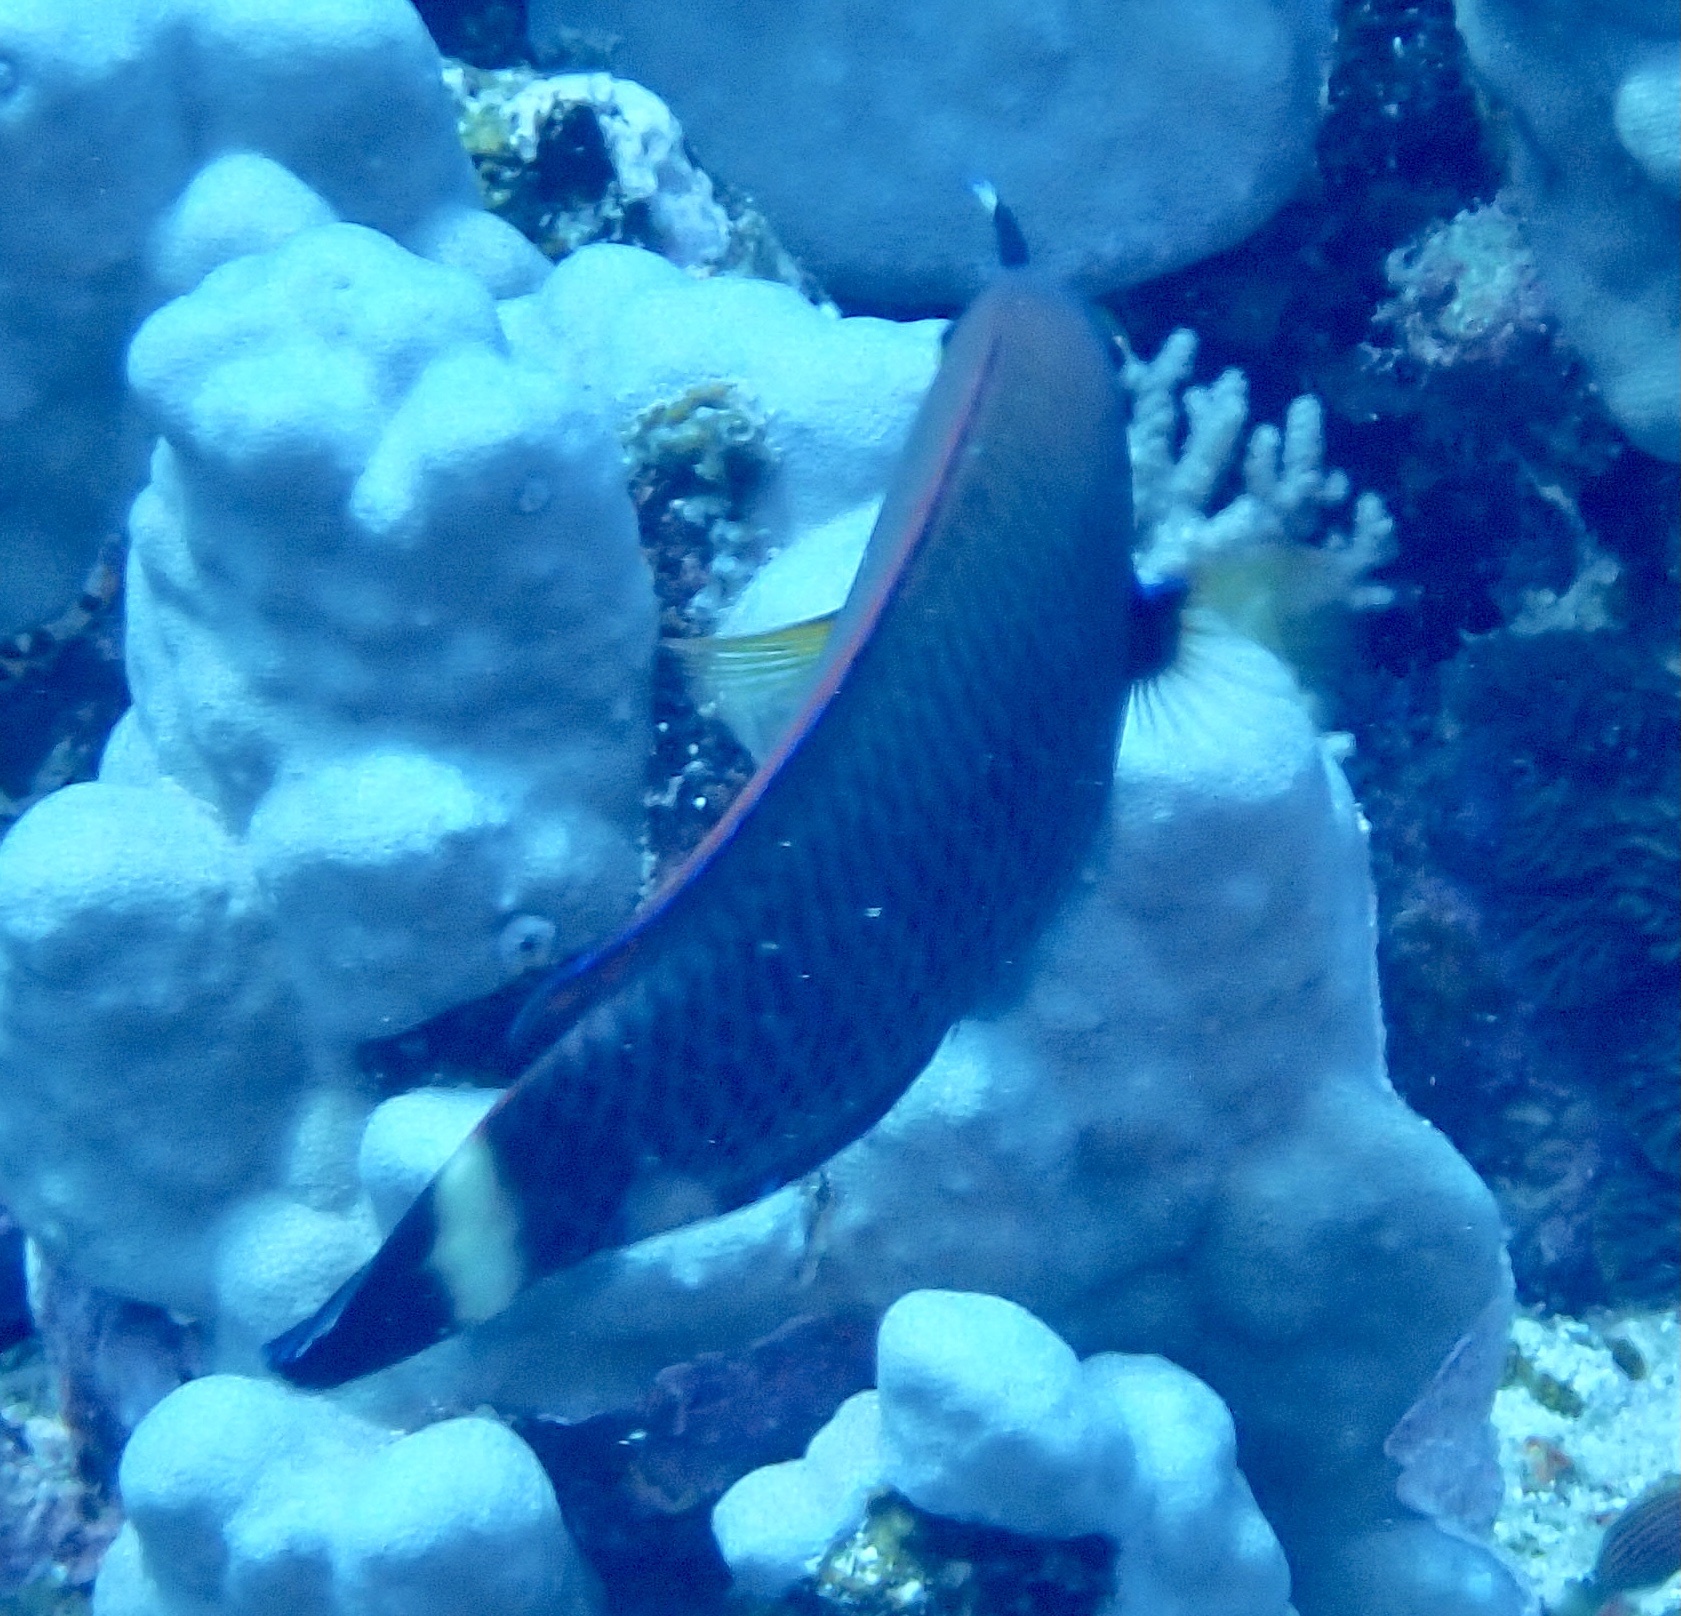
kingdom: Animalia
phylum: Chordata
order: Perciformes
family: Labridae
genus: Pseudodax
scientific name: Pseudodax moluccanus
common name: Chiseltooth wrasse
